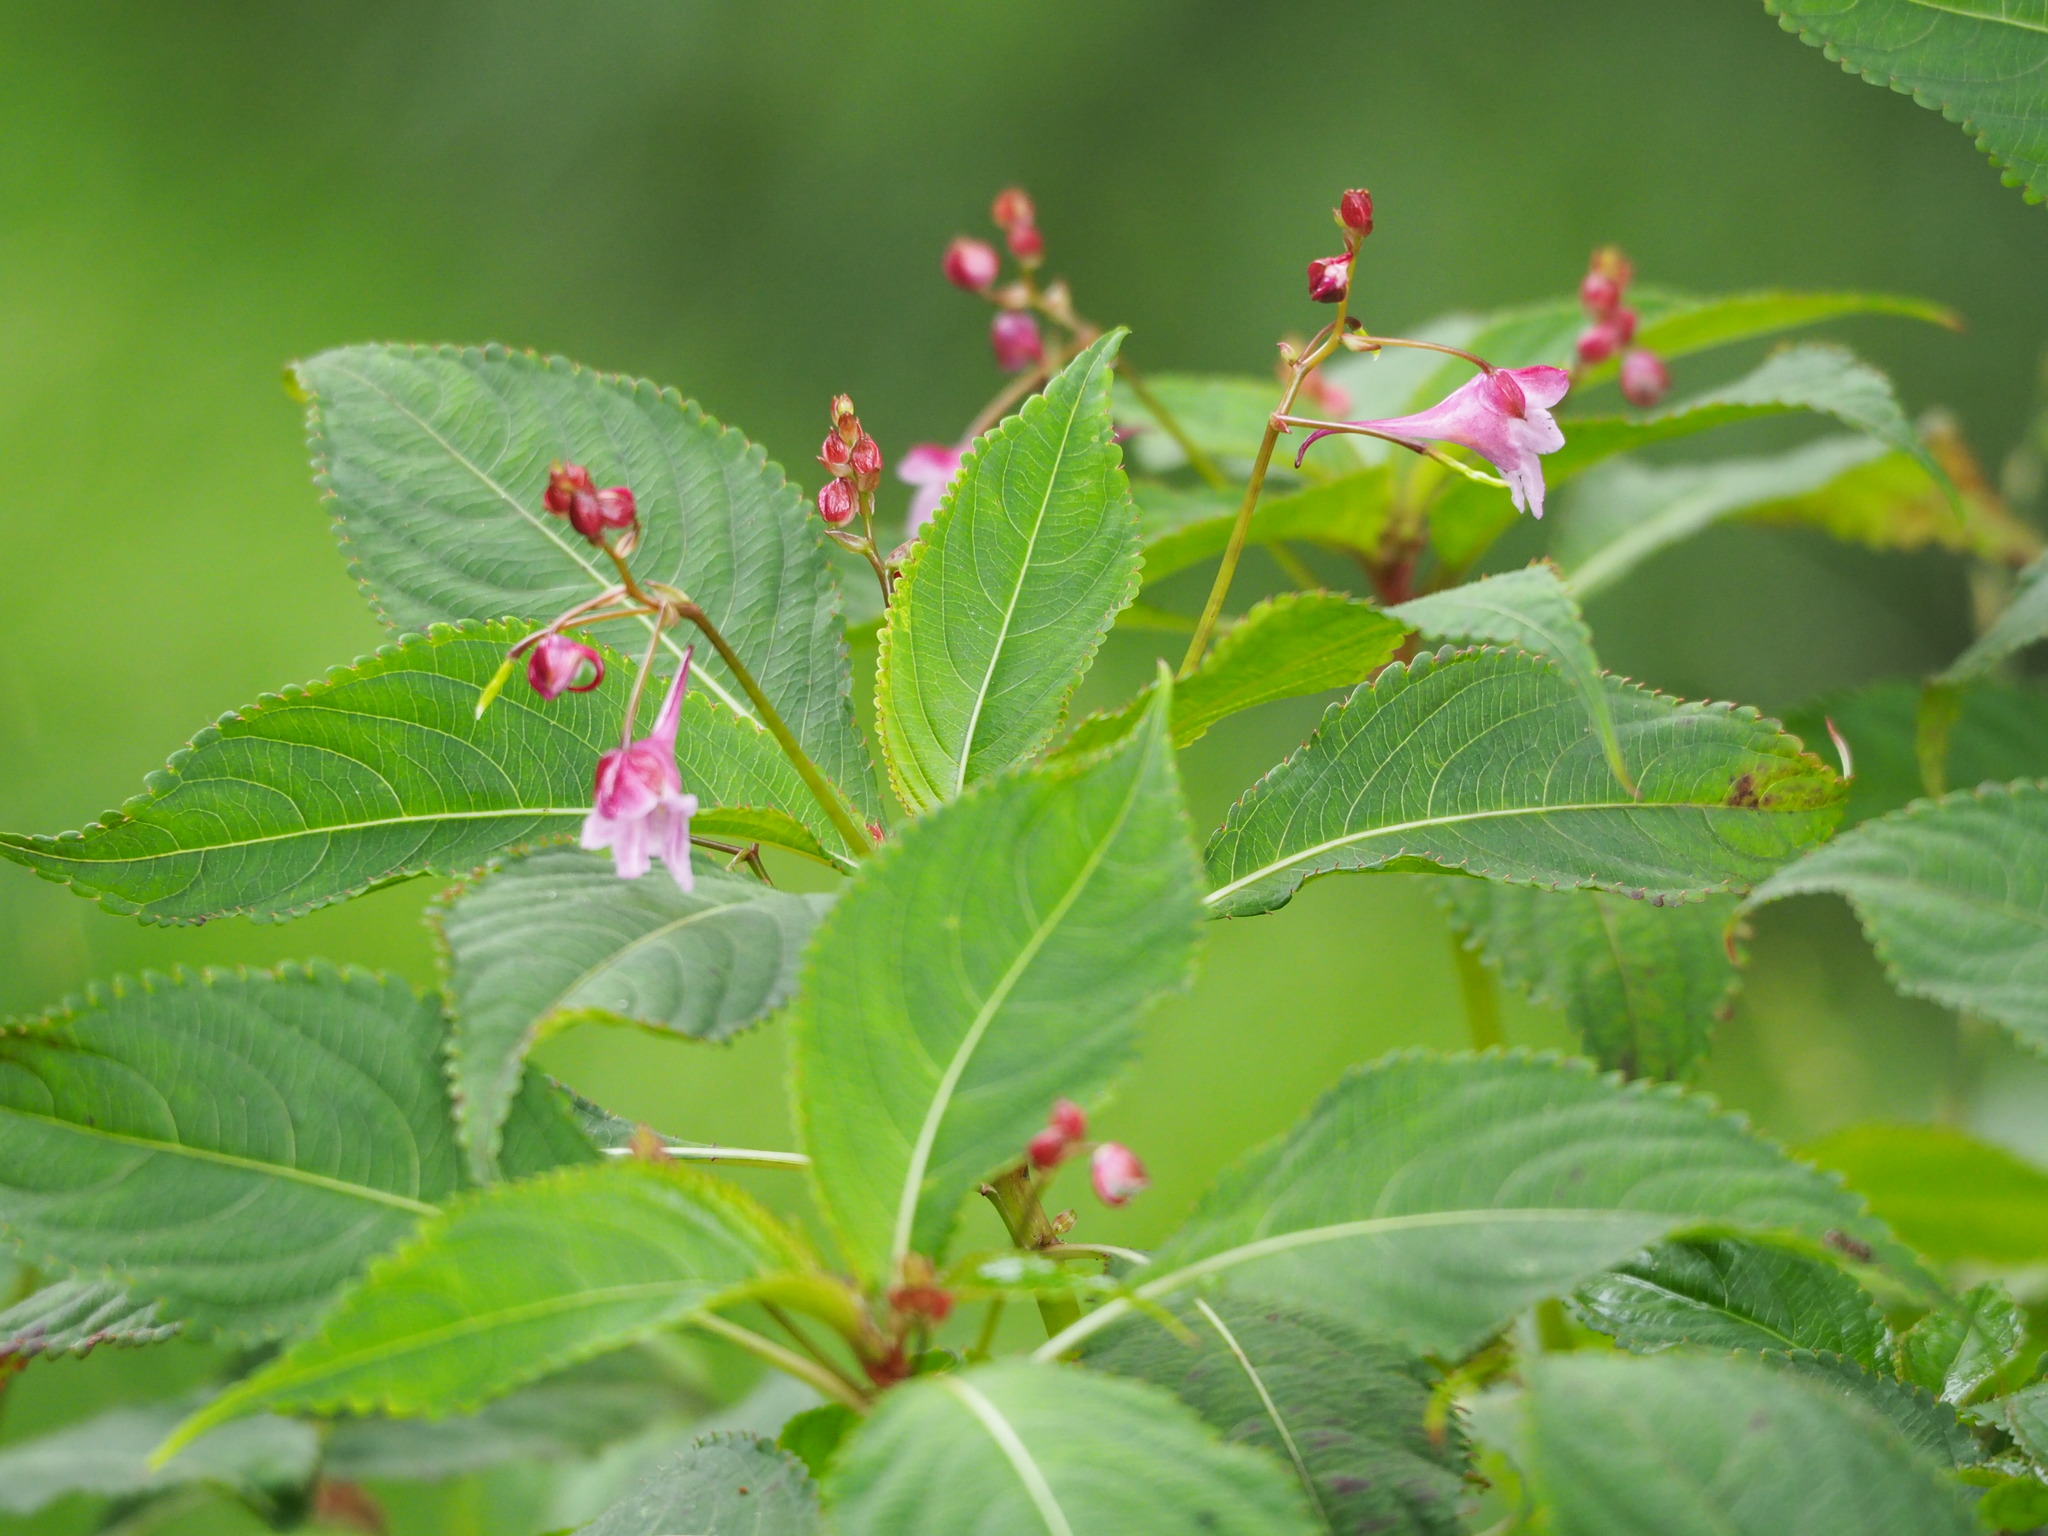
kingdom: Plantae
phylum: Tracheophyta
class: Magnoliopsida
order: Ericales
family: Balsaminaceae
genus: Impatiens
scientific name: Impatiens devolii
